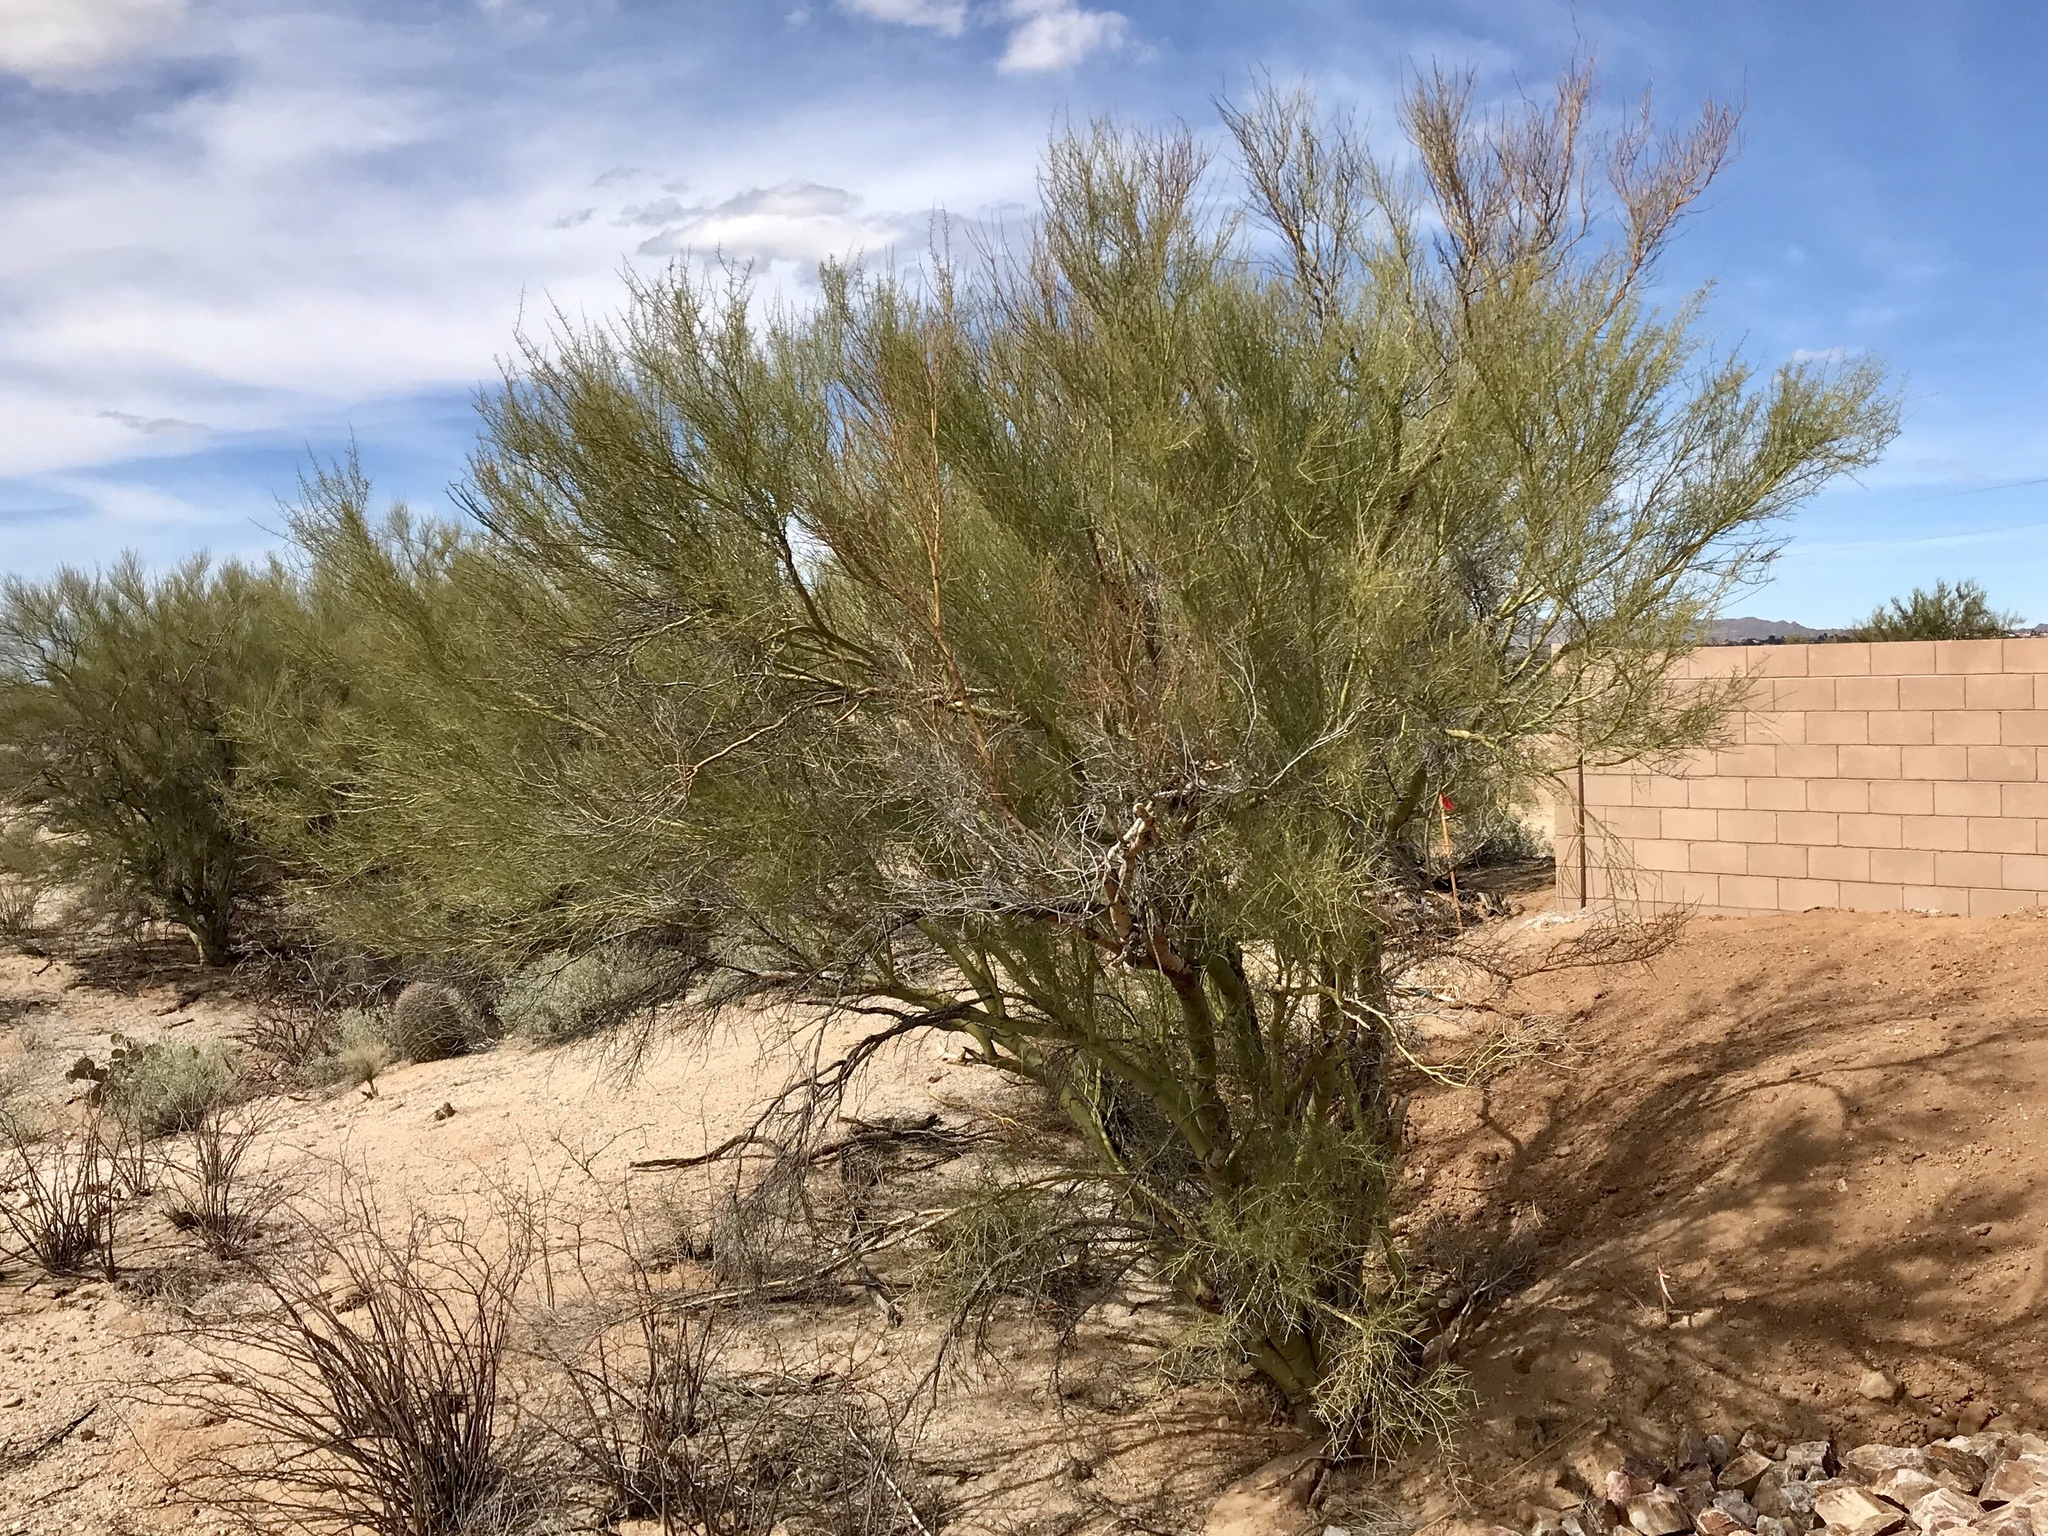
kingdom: Plantae
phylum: Tracheophyta
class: Magnoliopsida
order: Fabales
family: Fabaceae
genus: Parkinsonia
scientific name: Parkinsonia microphylla
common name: Yellow paloverde
